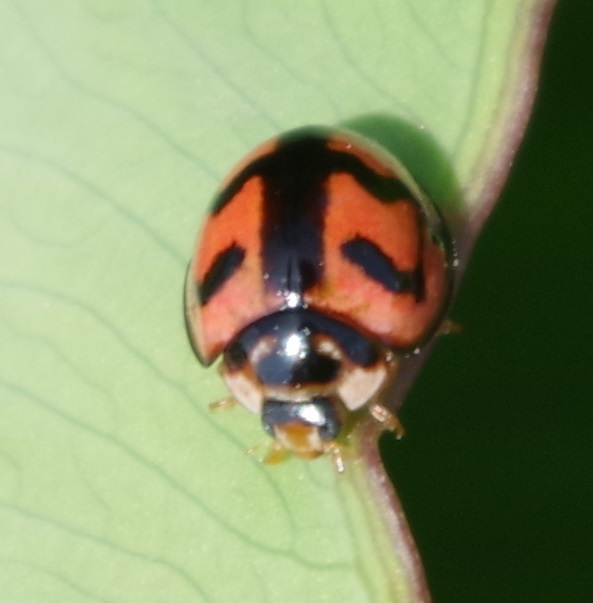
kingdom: Animalia
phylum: Arthropoda
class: Insecta
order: Coleoptera
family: Coccinellidae
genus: Cheilomenes
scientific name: Cheilomenes sexmaculata
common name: Ladybird beetle
